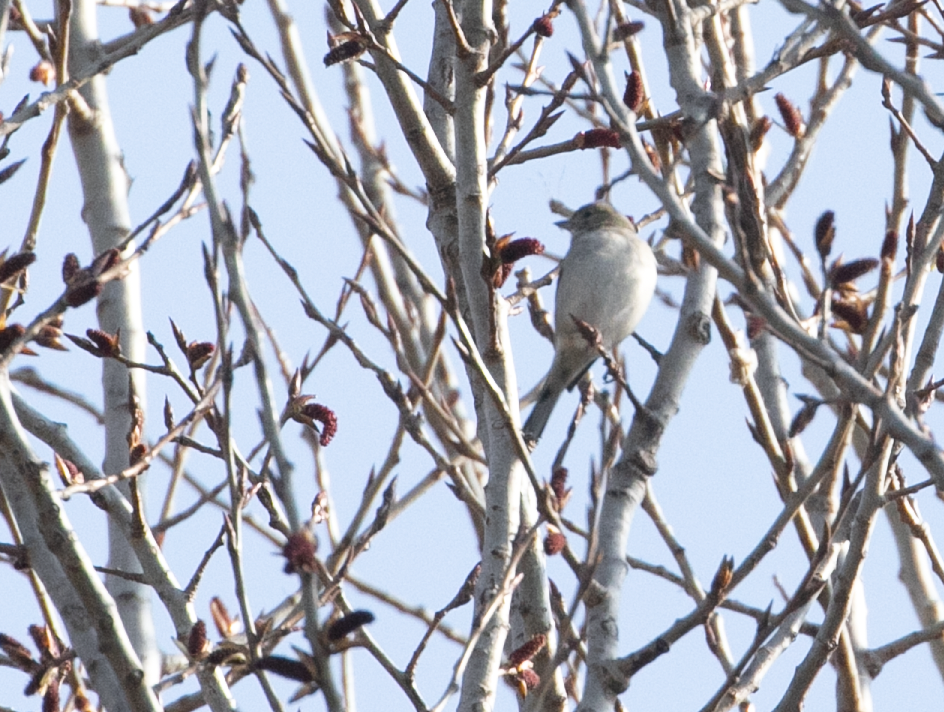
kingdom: Animalia
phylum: Chordata
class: Aves
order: Passeriformes
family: Fringillidae
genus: Fringilla
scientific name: Fringilla coelebs
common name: Common chaffinch
